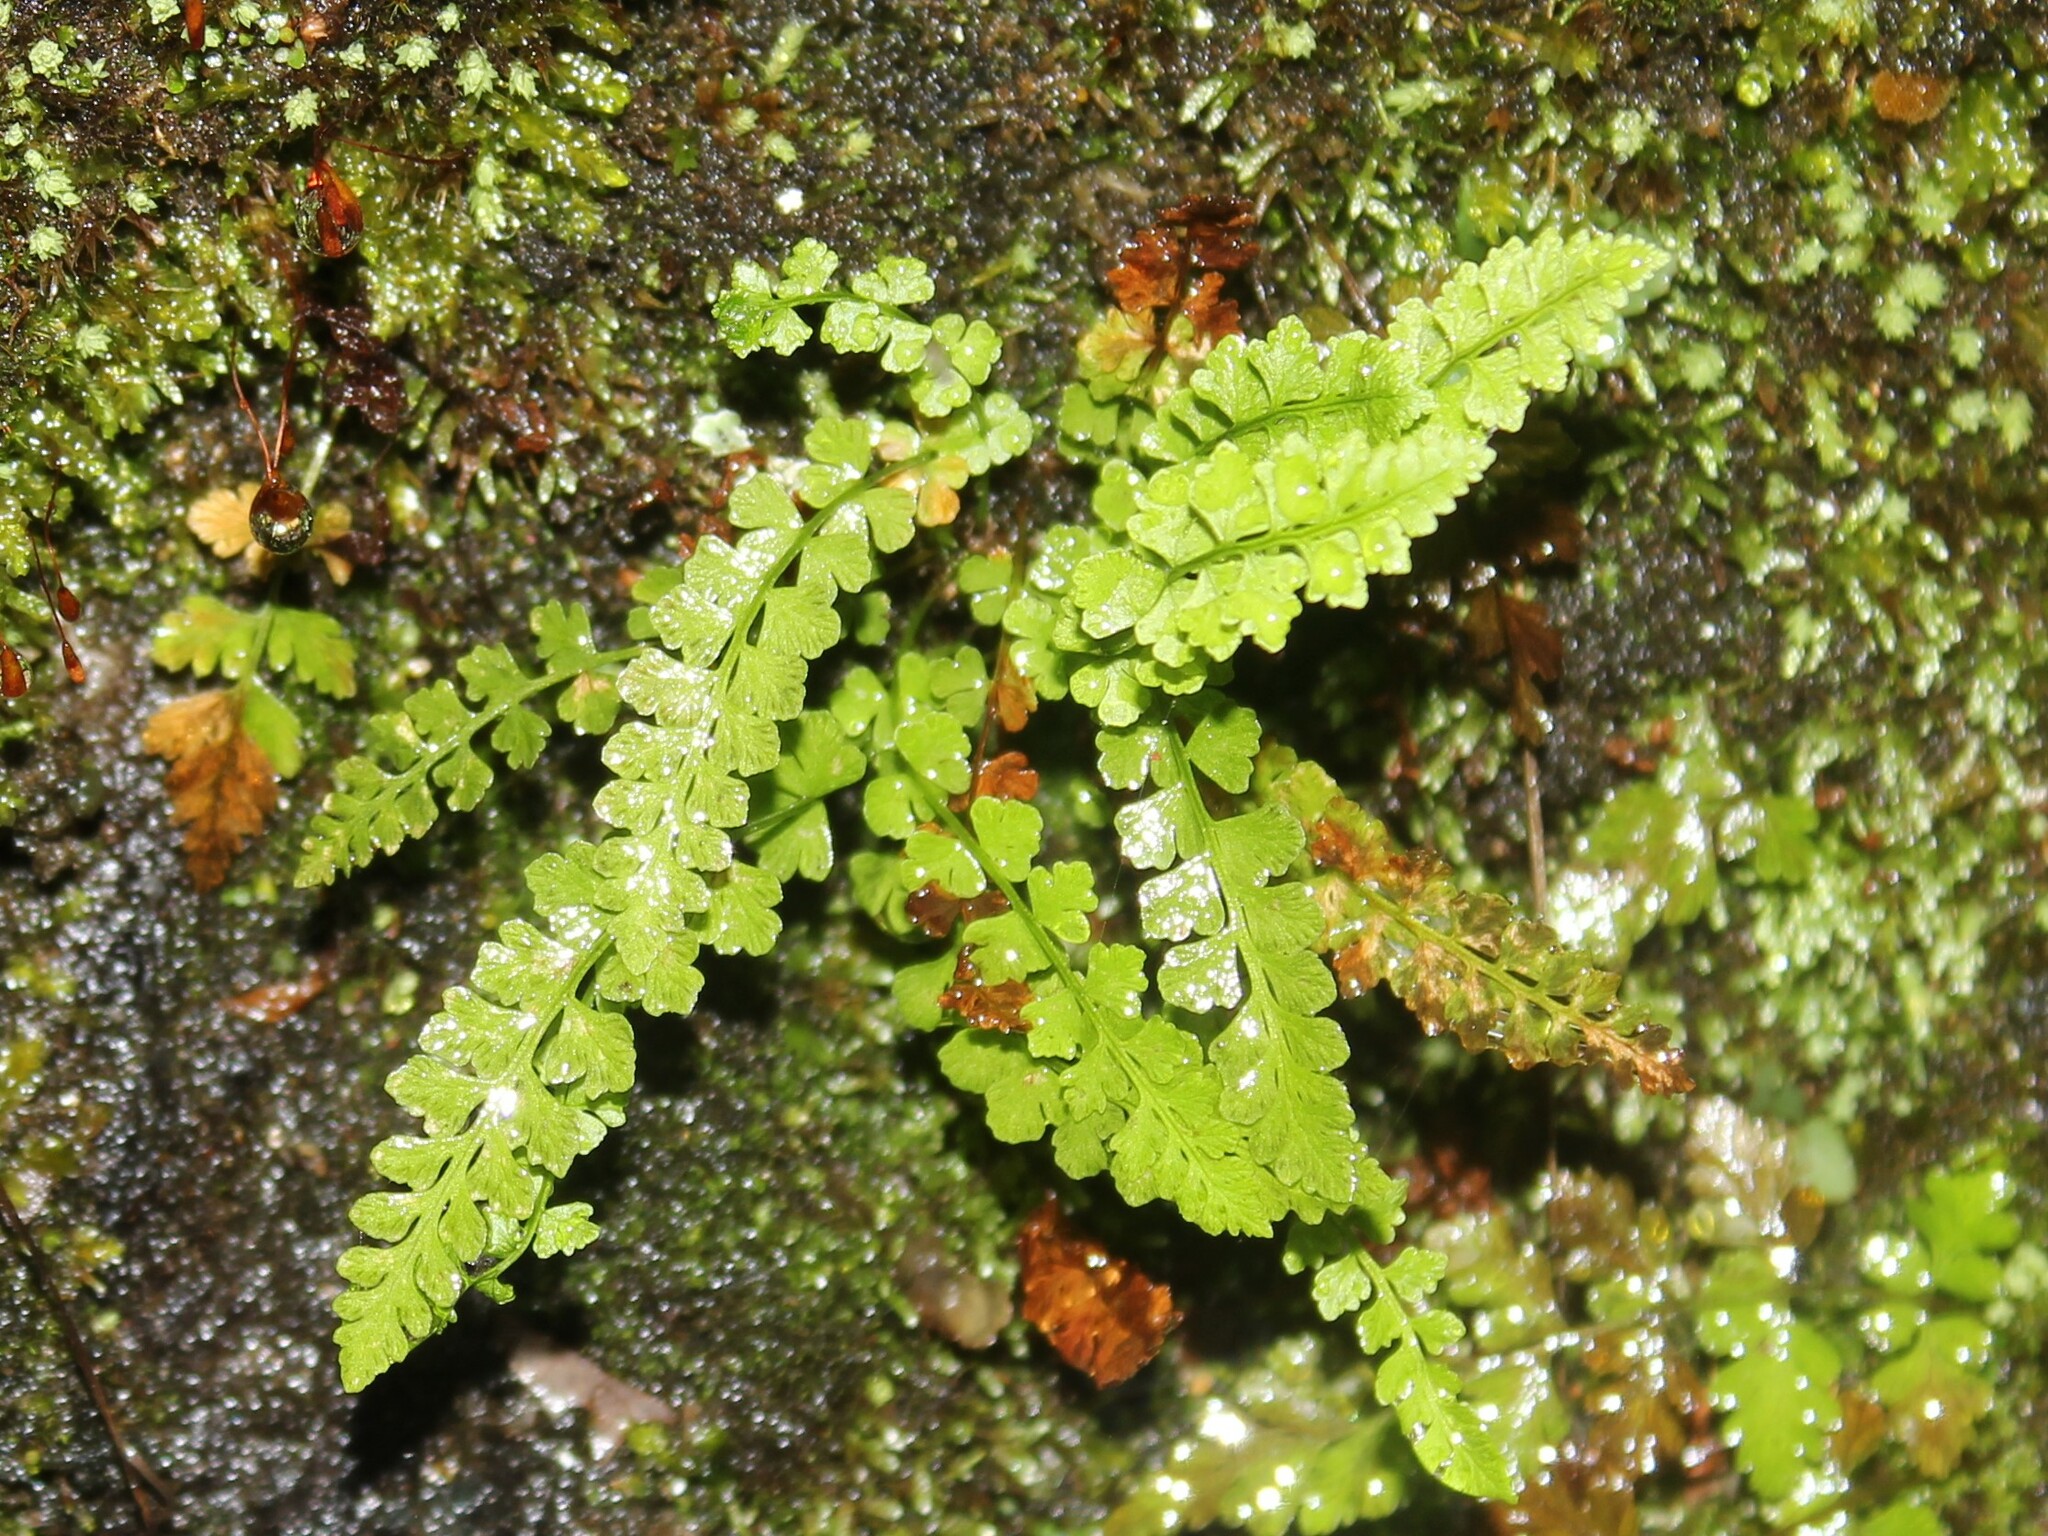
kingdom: Plantae
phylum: Tracheophyta
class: Polypodiopsida
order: Polypodiales
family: Aspleniaceae
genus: Asplenium
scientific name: Asplenium viride
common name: Green spleenwort
